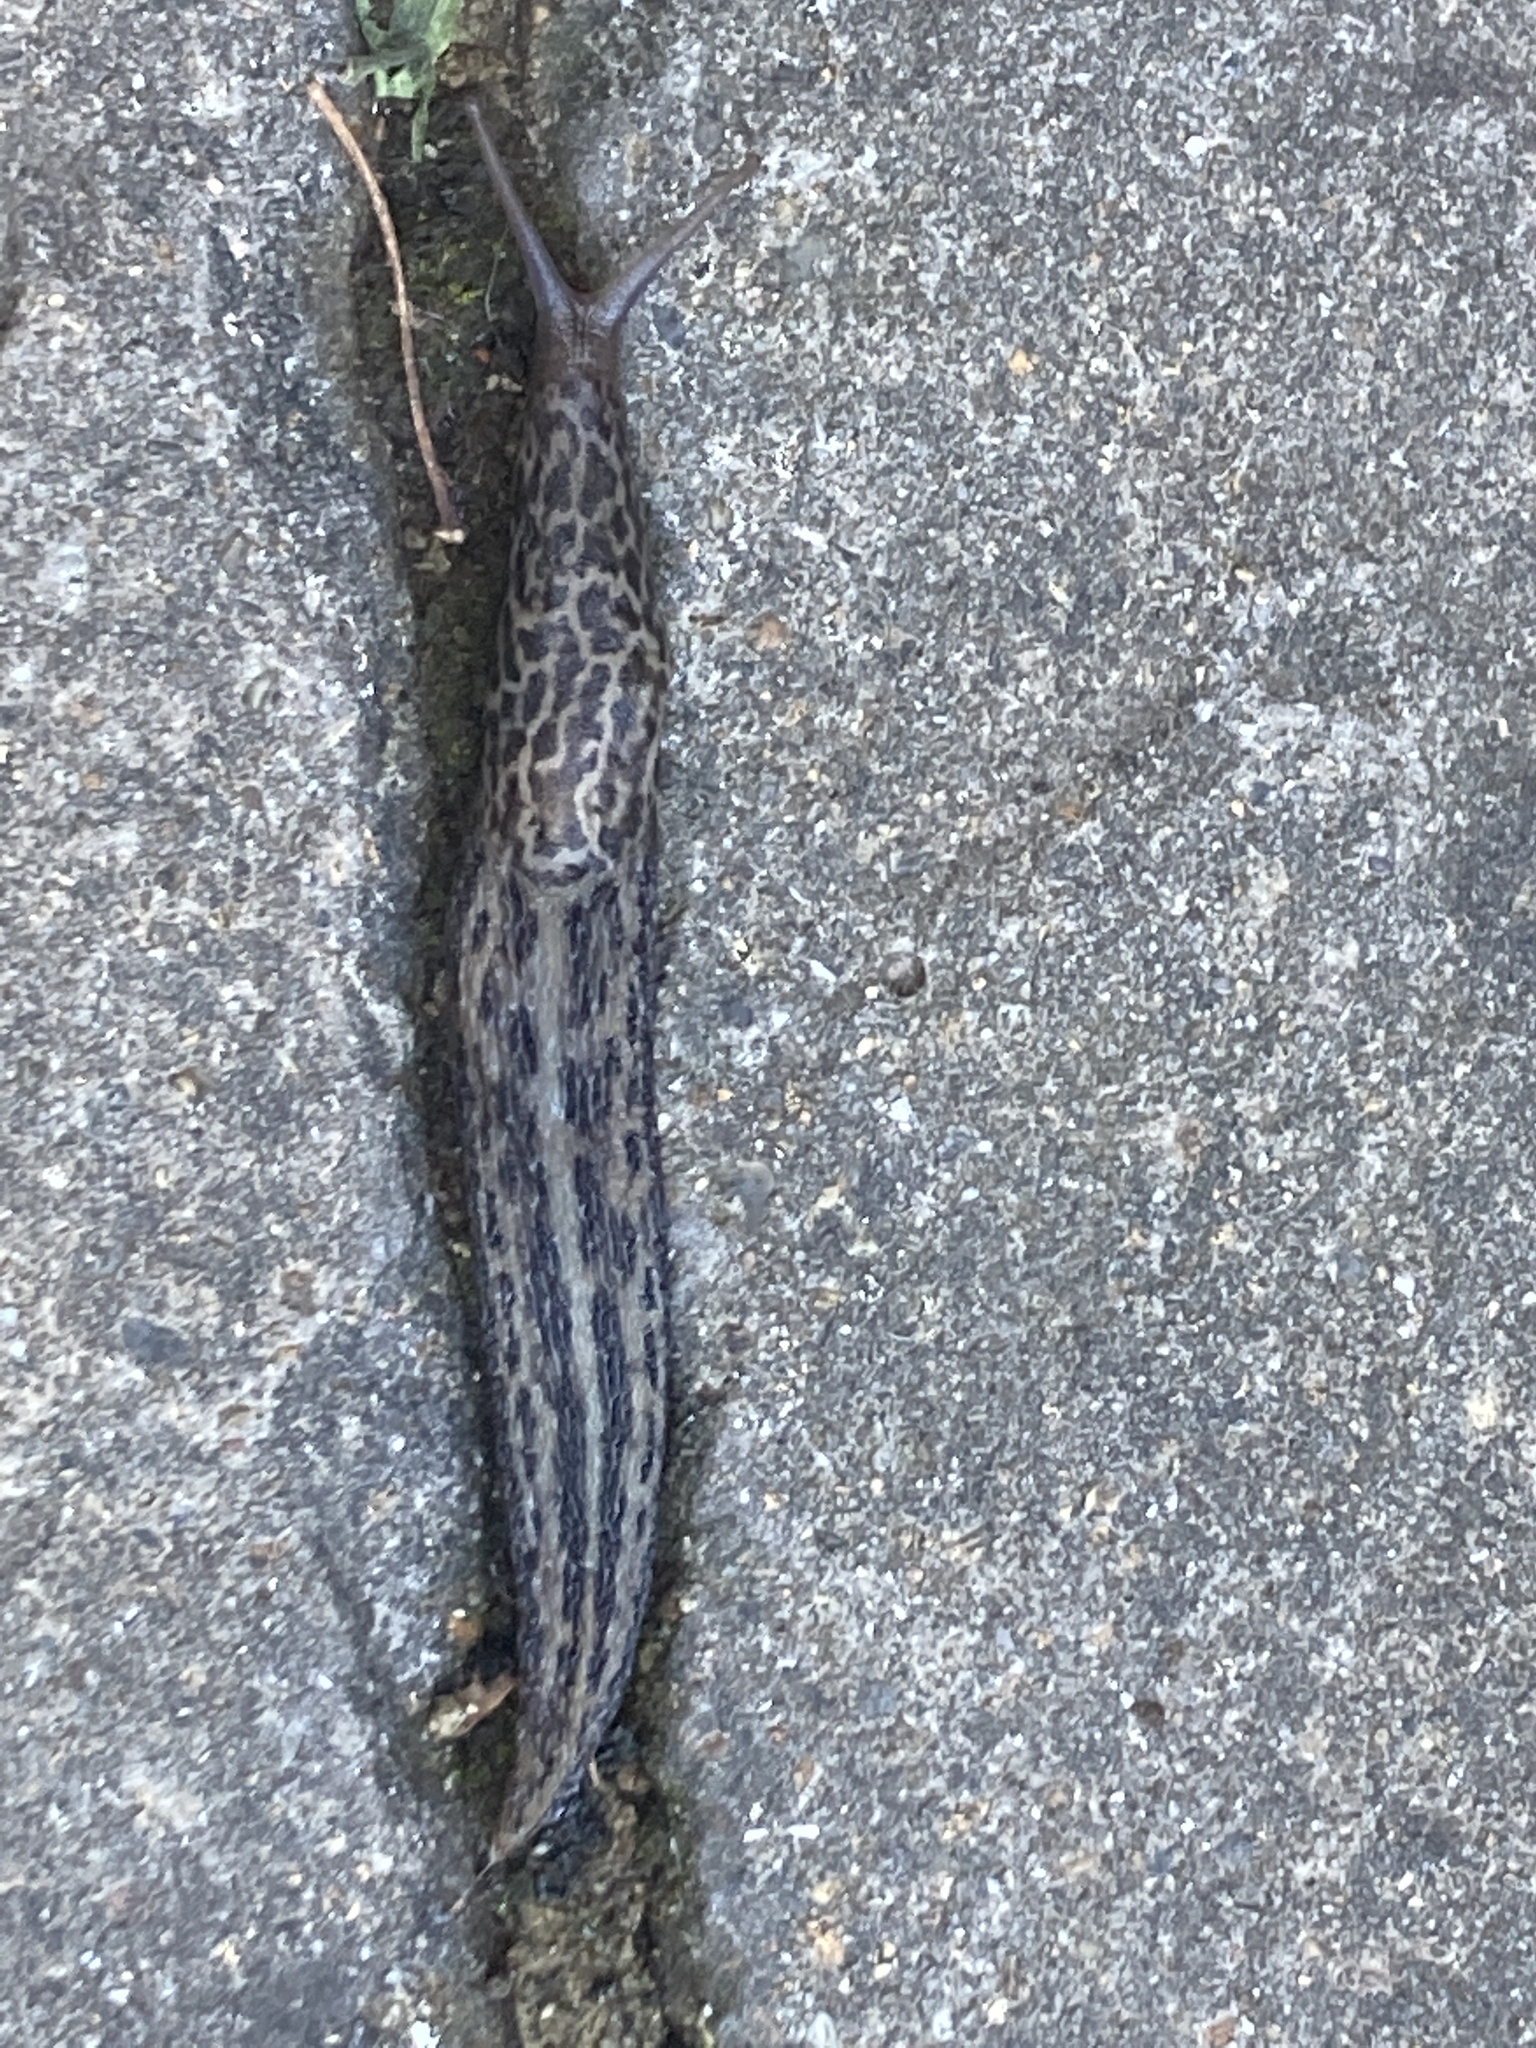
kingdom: Animalia
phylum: Mollusca
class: Gastropoda
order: Stylommatophora
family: Limacidae
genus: Limax
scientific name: Limax maximus
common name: Great grey slug
